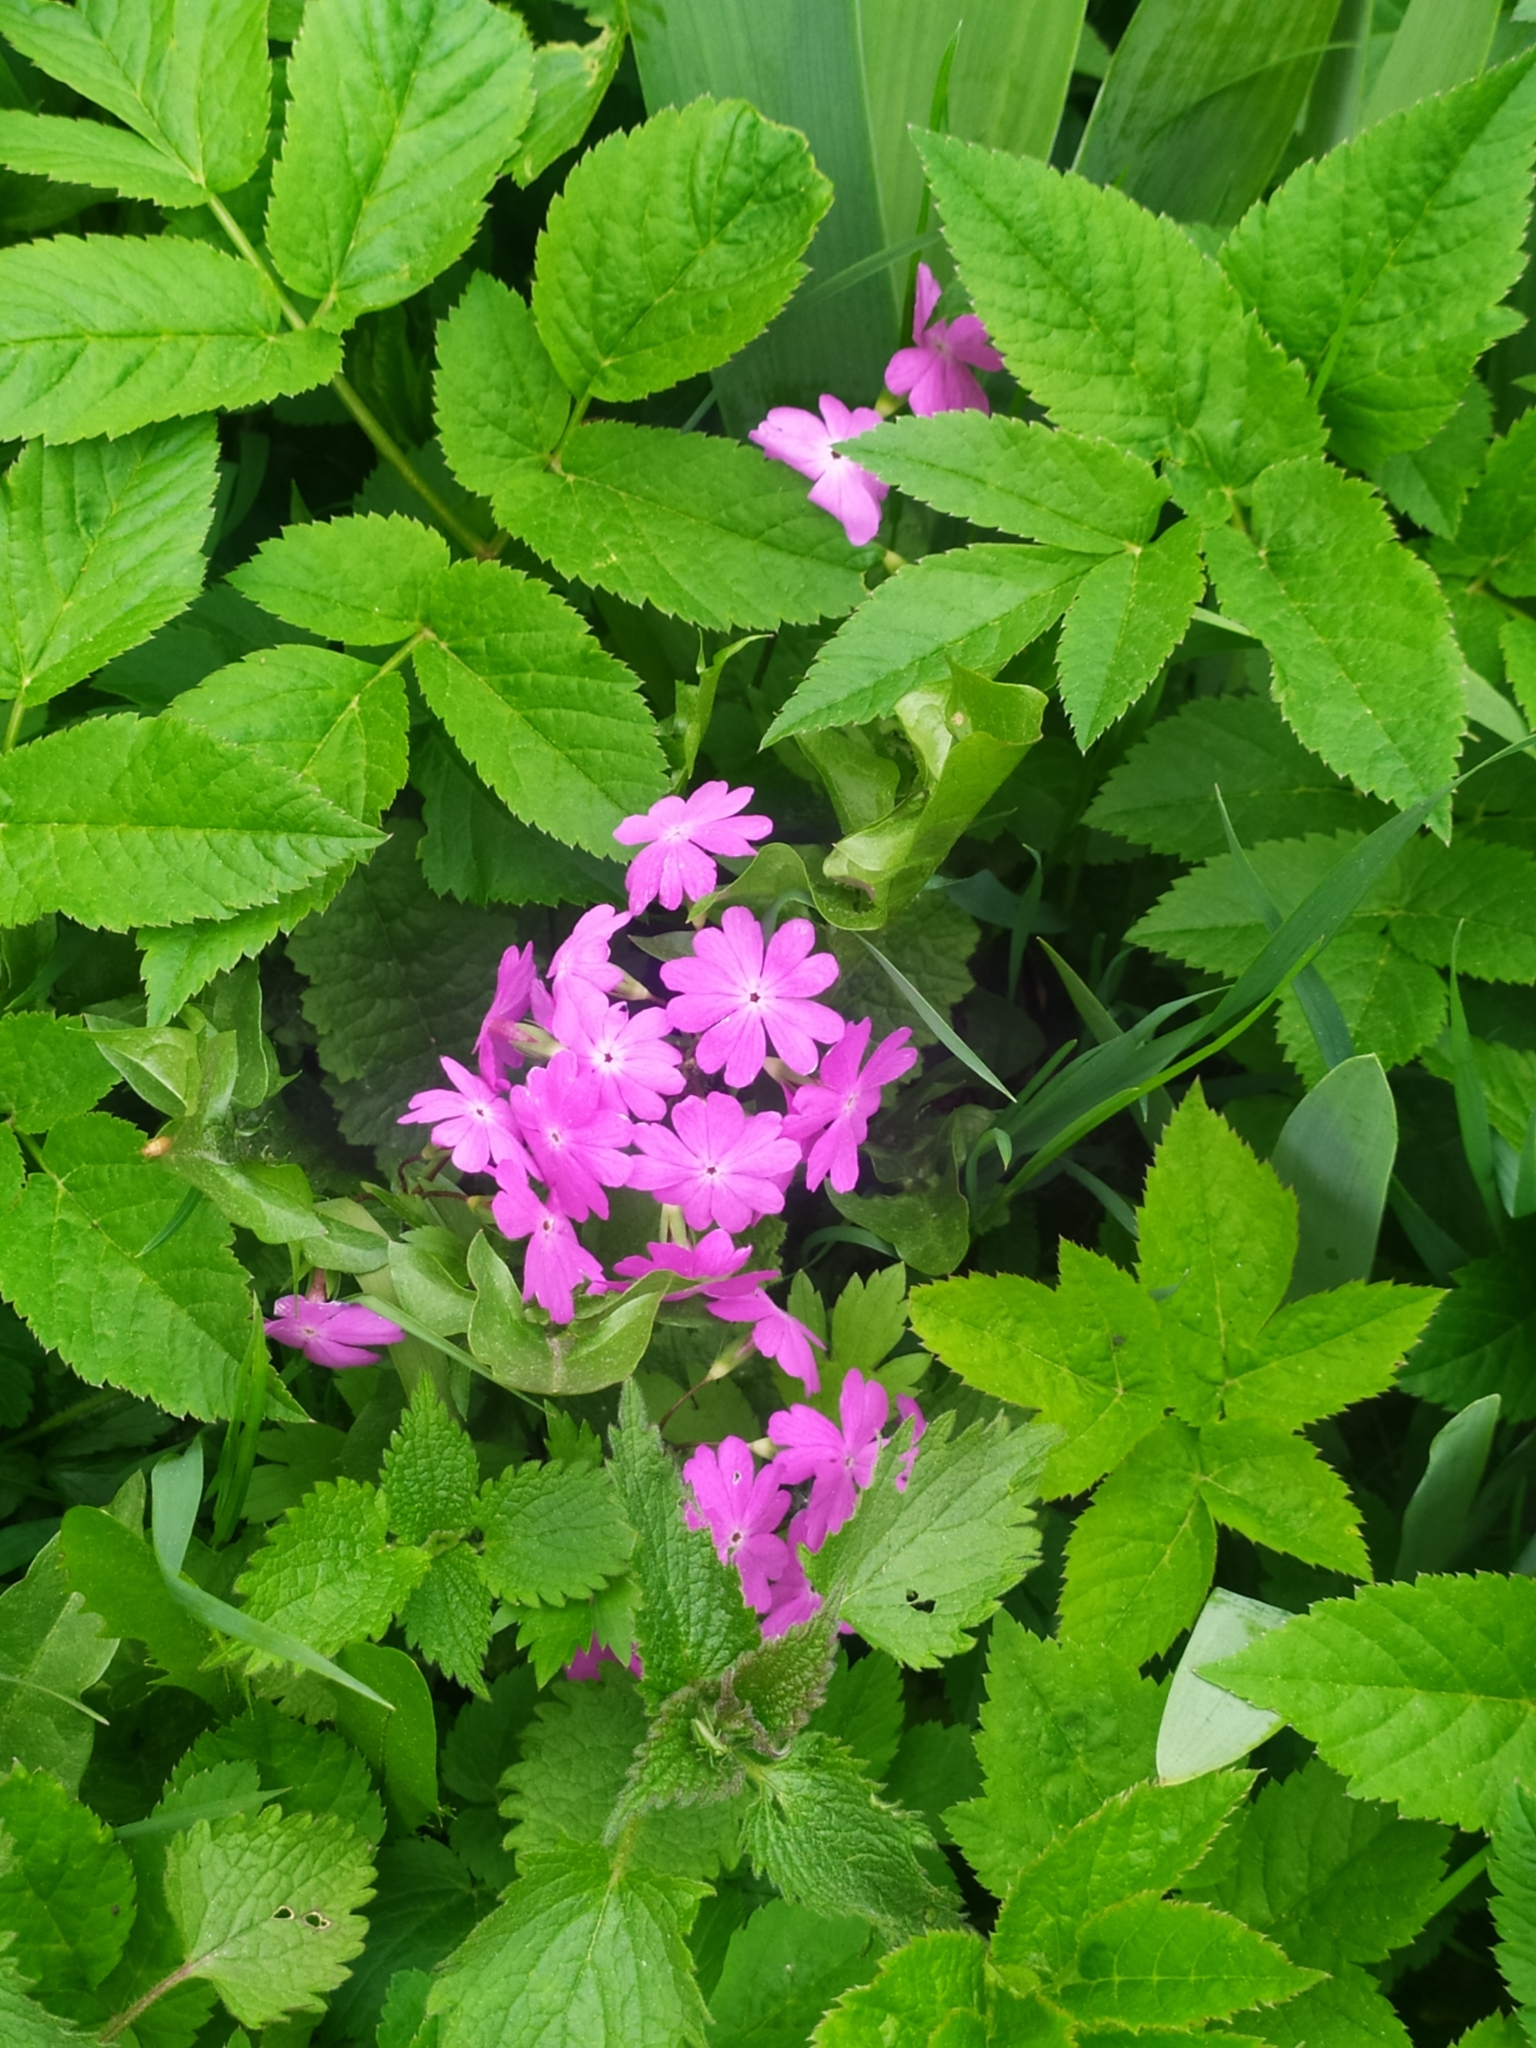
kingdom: Plantae
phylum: Tracheophyta
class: Magnoliopsida
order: Ericales
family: Primulaceae
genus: Primula
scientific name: Primula cortusoides
